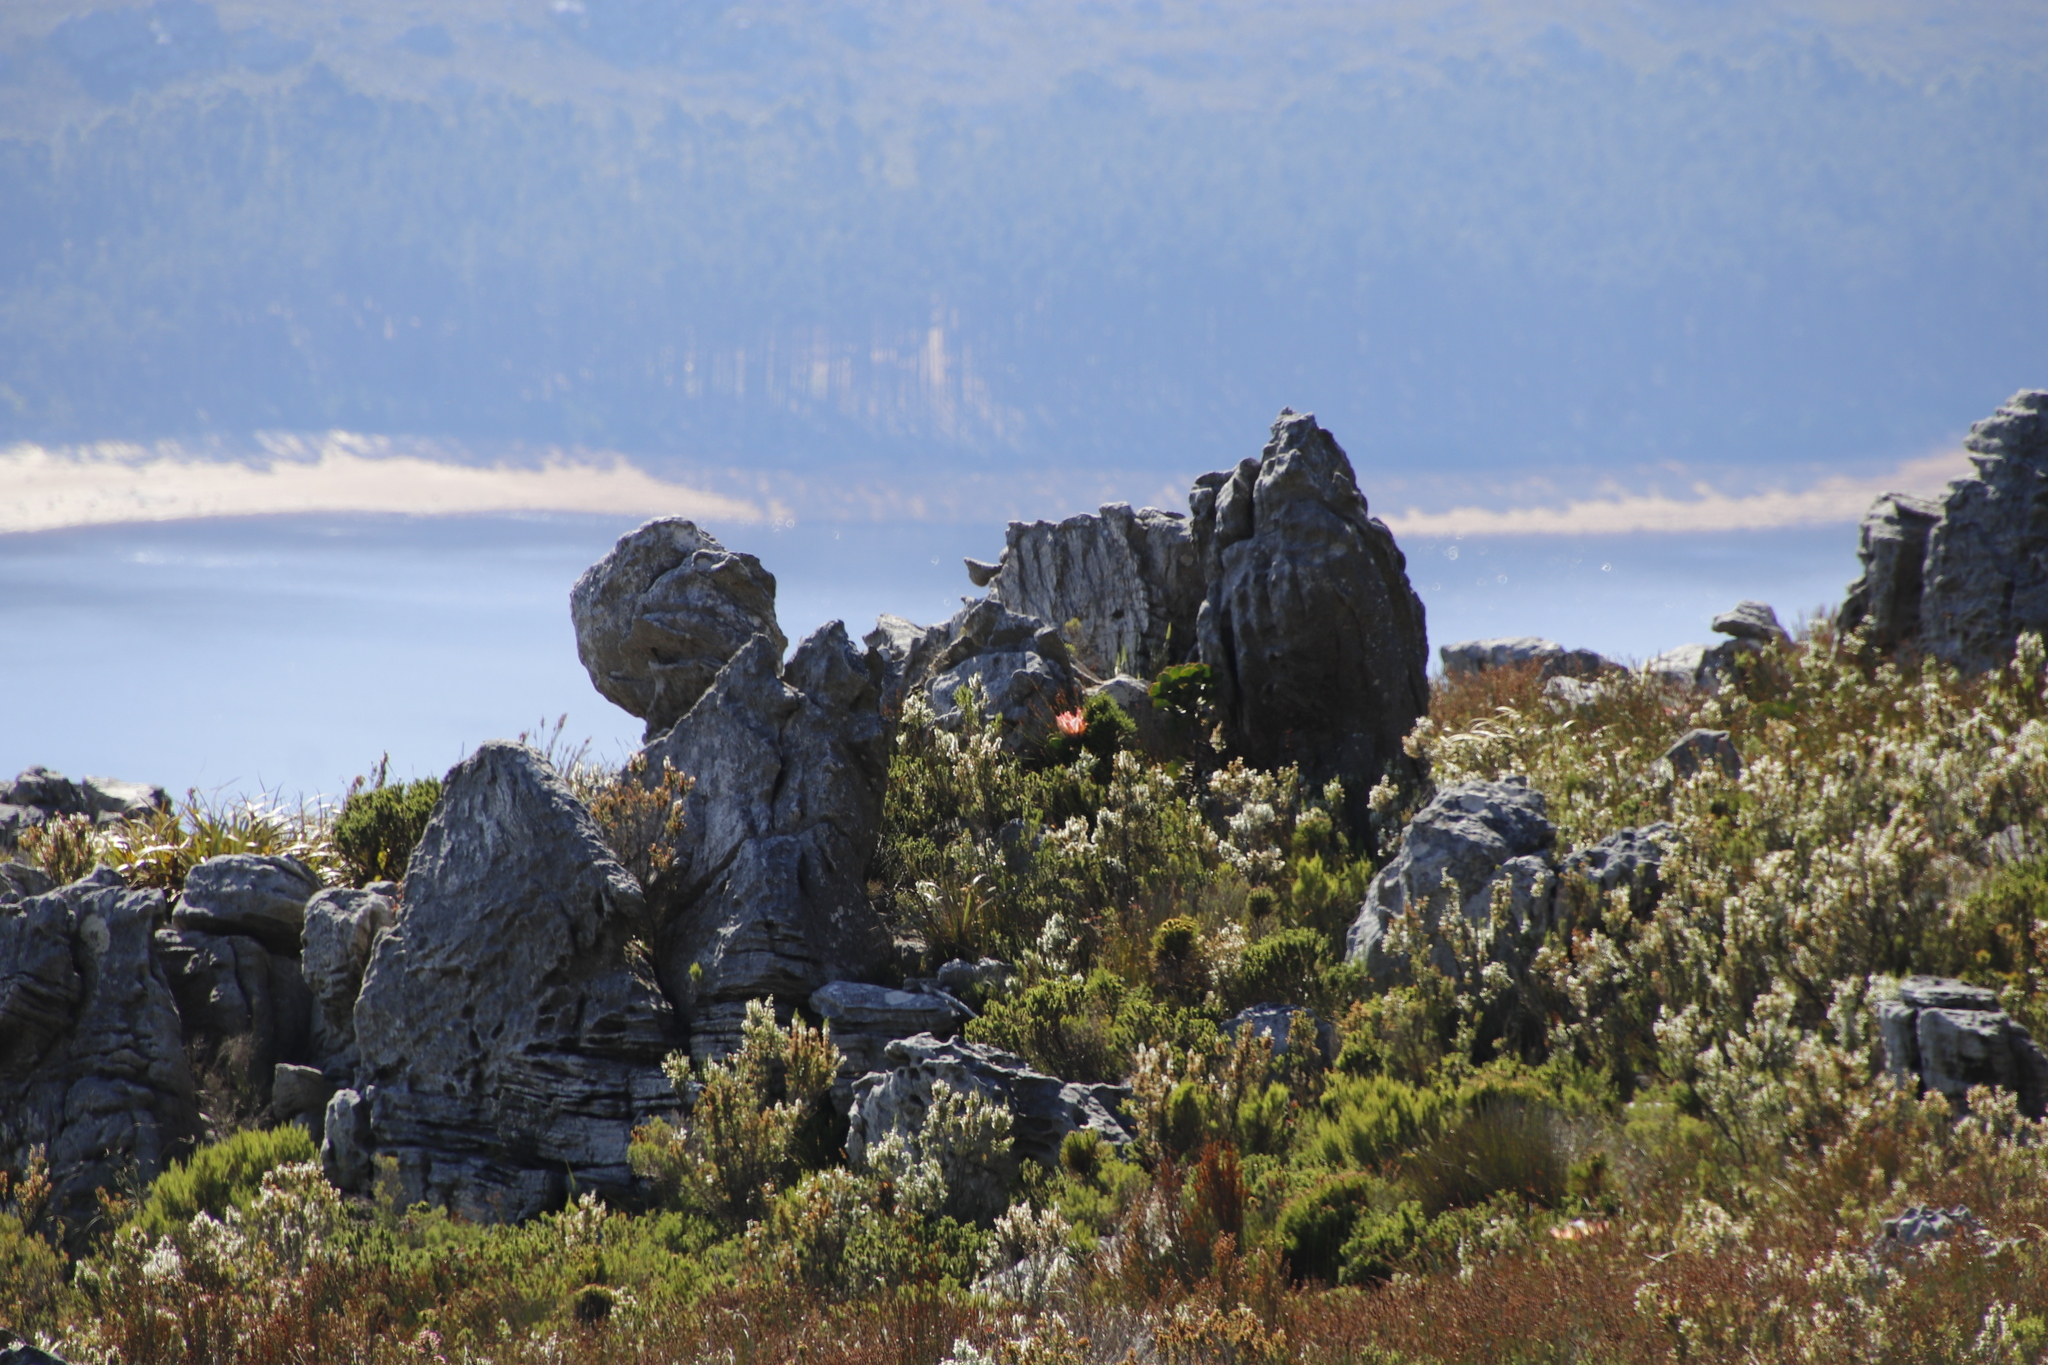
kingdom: Plantae
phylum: Tracheophyta
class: Magnoliopsida
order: Proteales
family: Proteaceae
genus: Protea
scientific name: Protea cynaroides
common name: King protea
